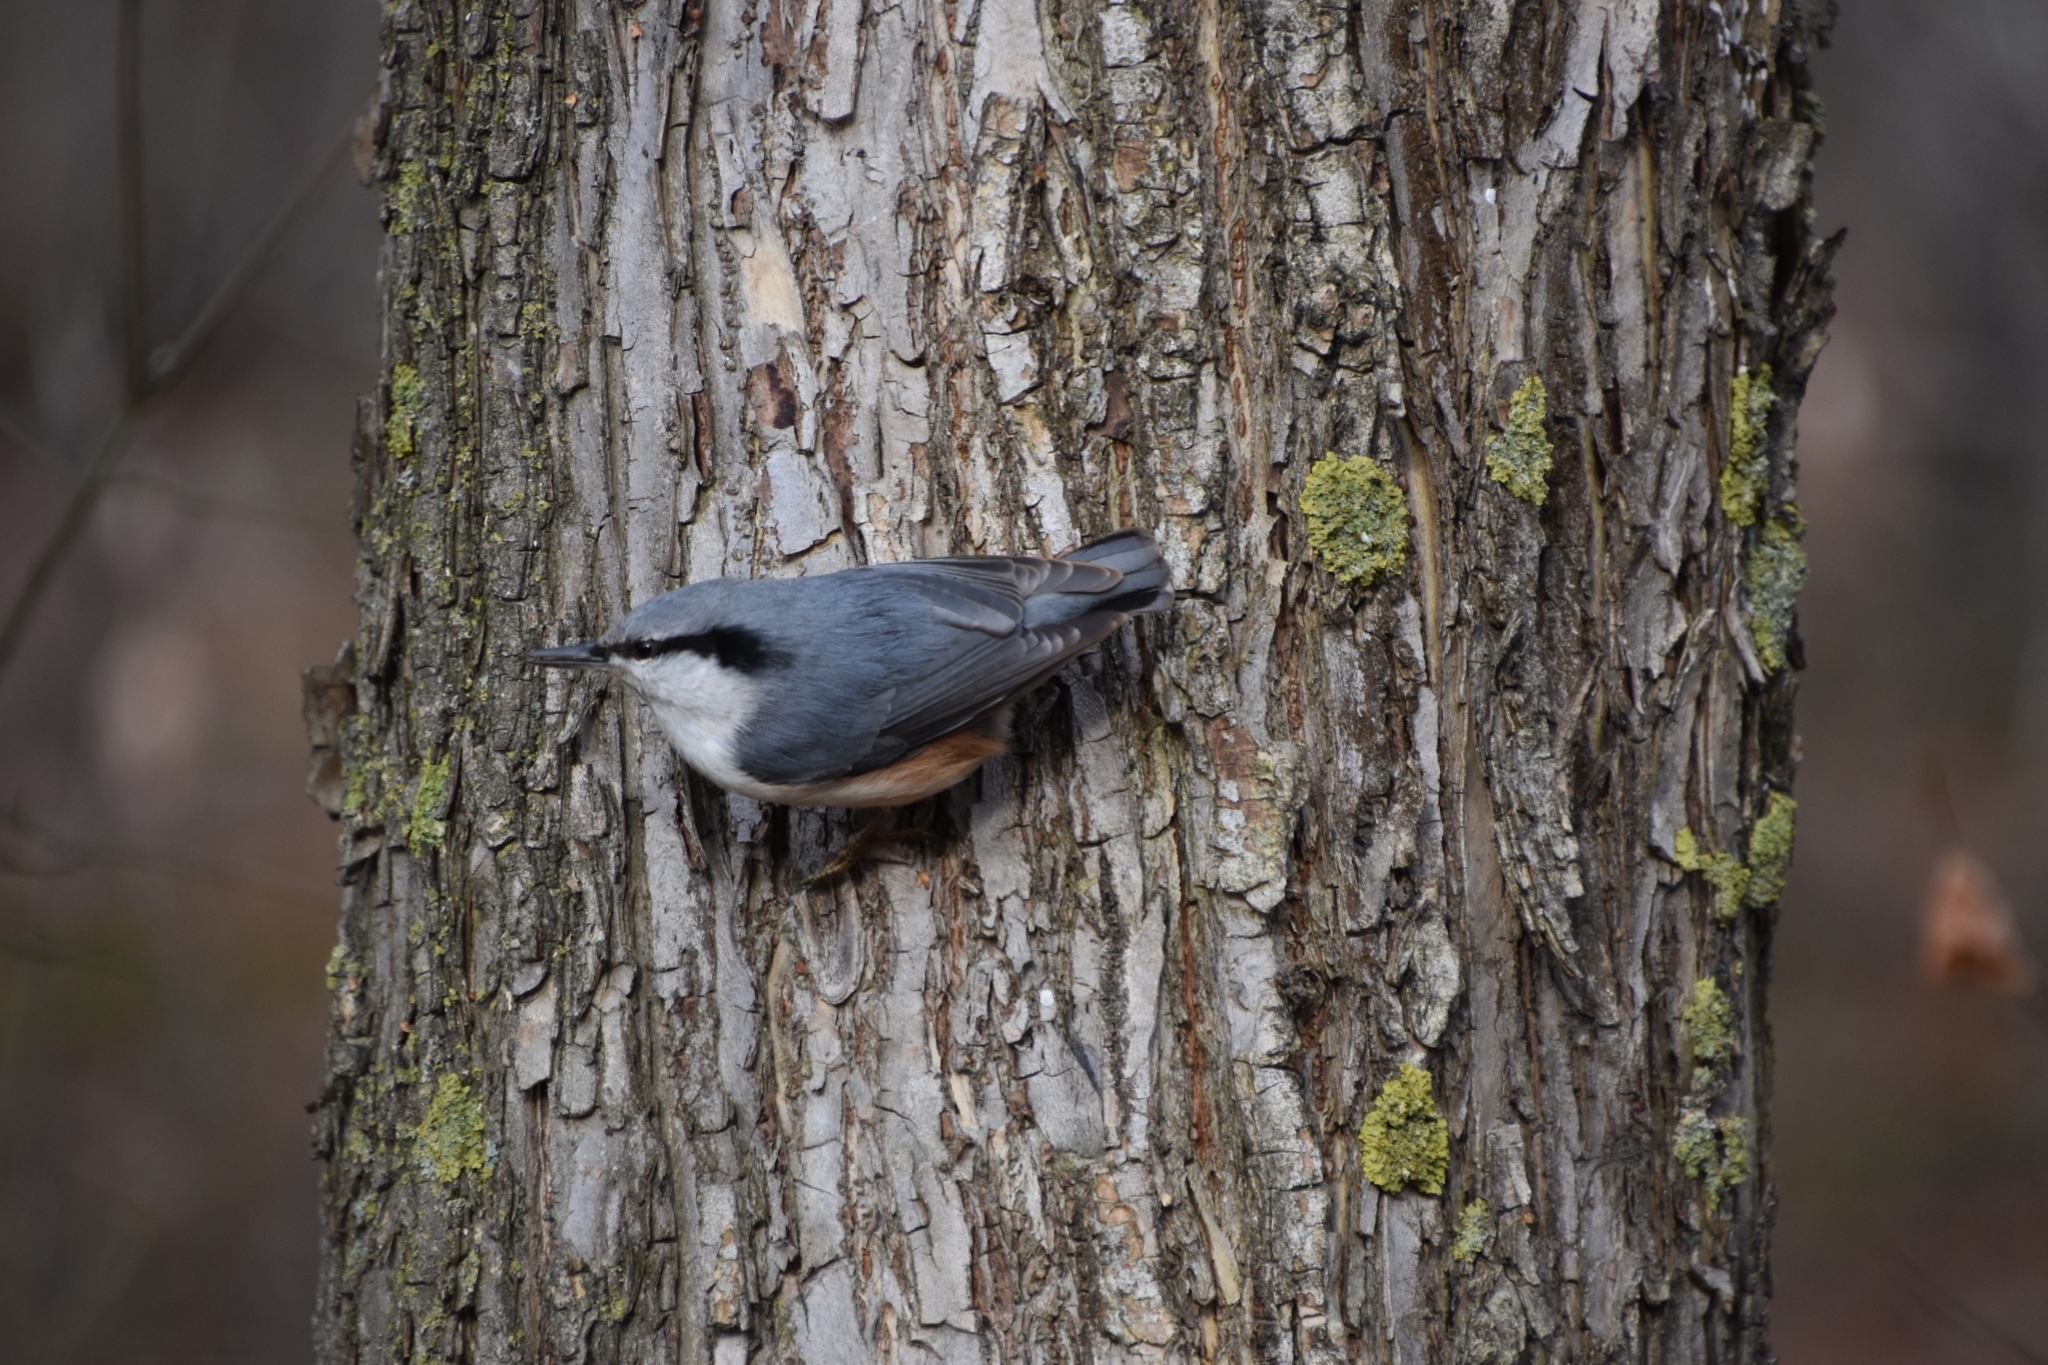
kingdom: Animalia
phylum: Chordata
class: Aves
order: Passeriformes
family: Sittidae
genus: Sitta
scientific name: Sitta europaea
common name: Eurasian nuthatch
